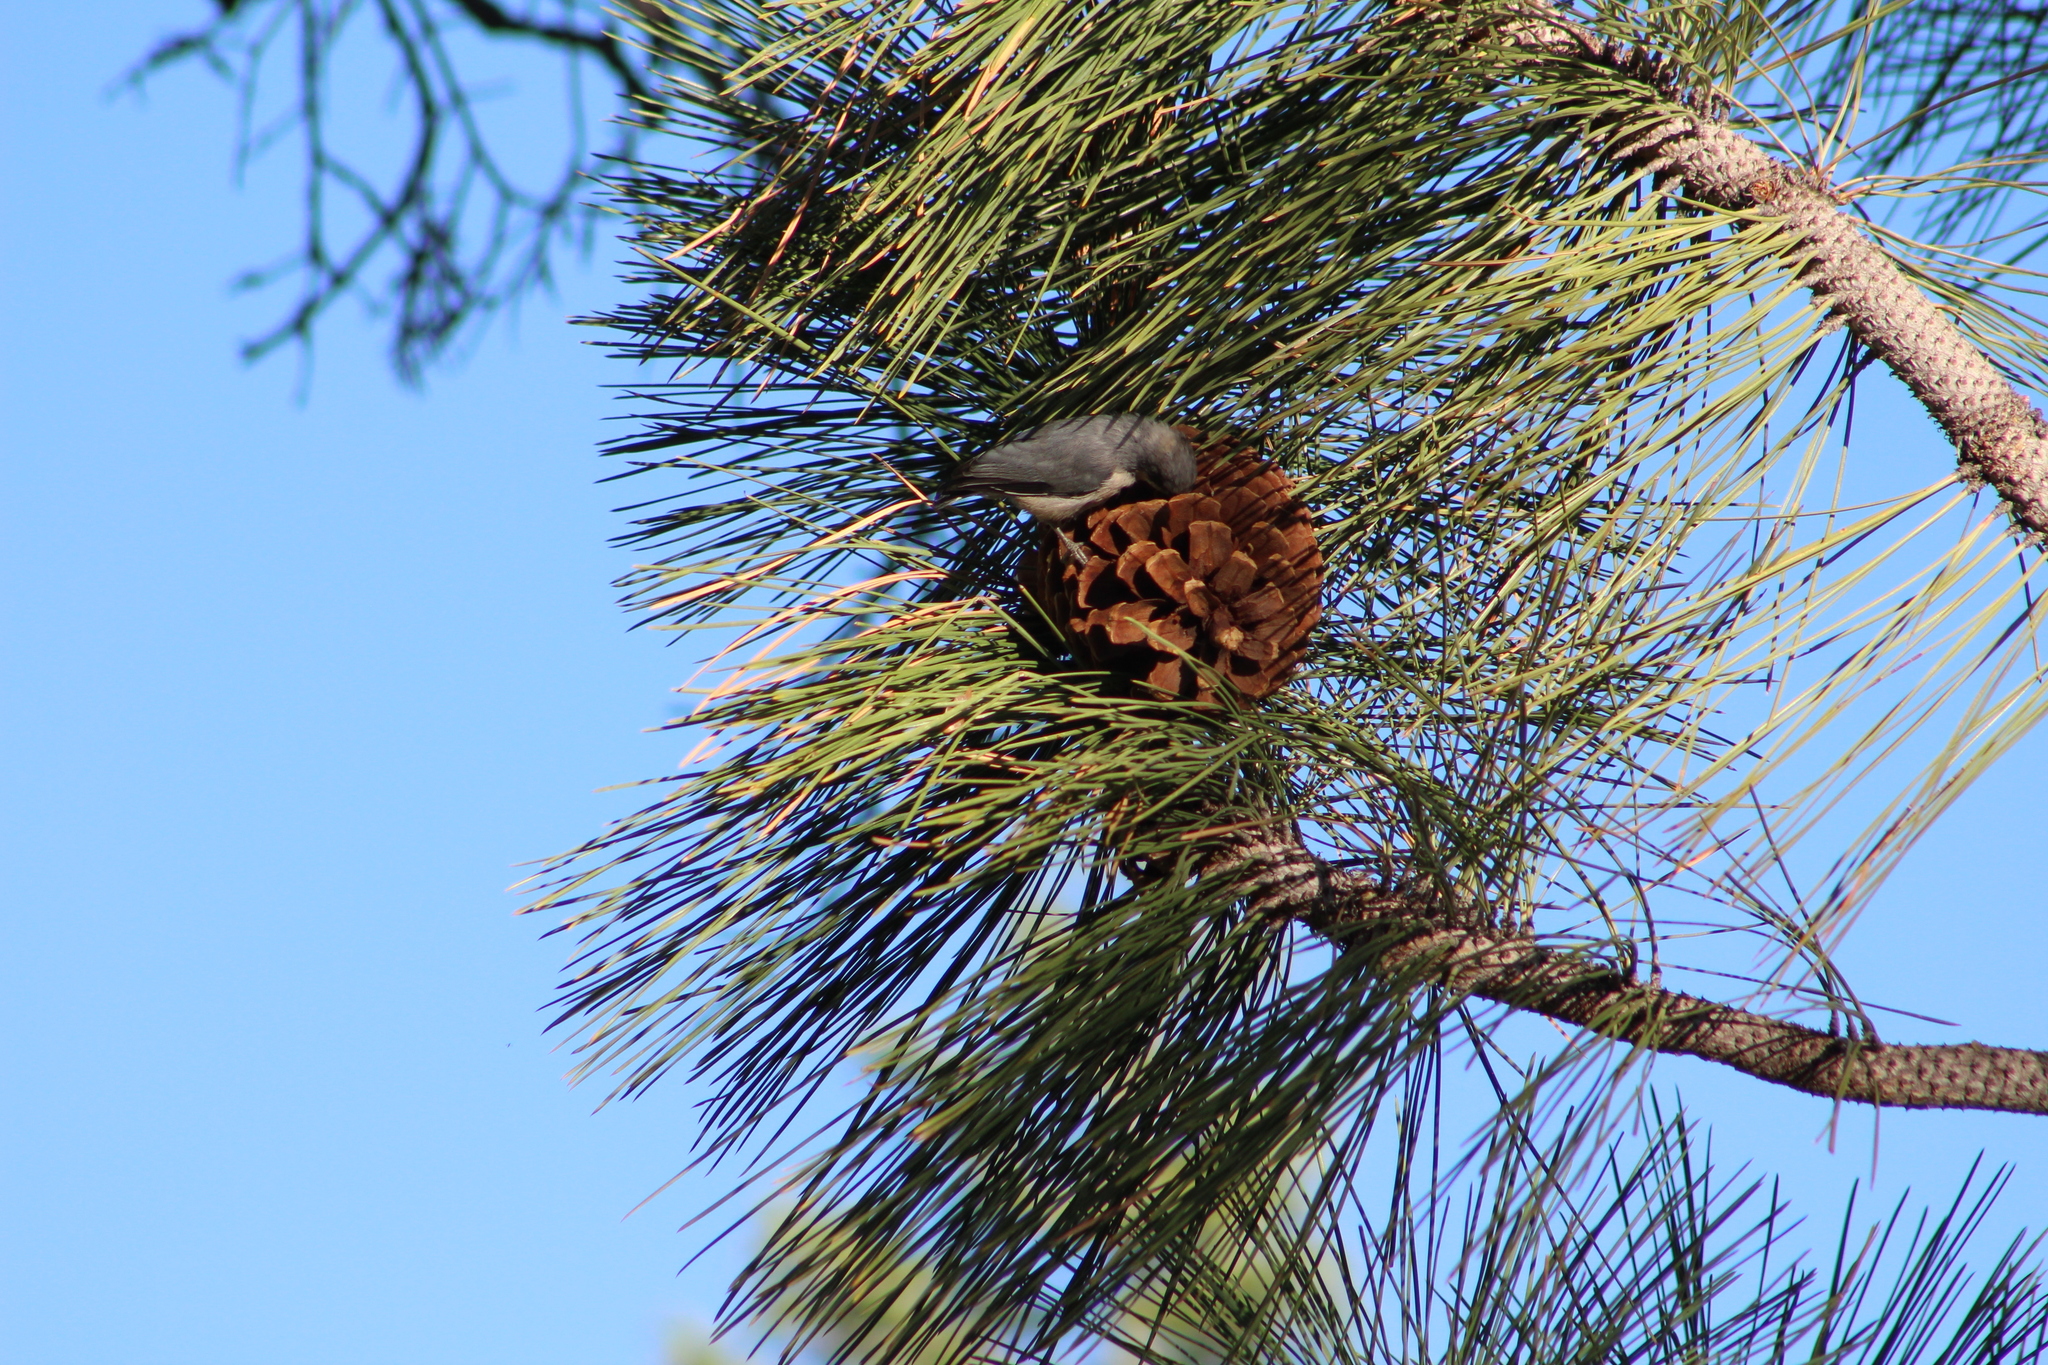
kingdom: Animalia
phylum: Chordata
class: Aves
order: Passeriformes
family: Sittidae
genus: Sitta
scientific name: Sitta pygmaea
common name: Pygmy nuthatch
